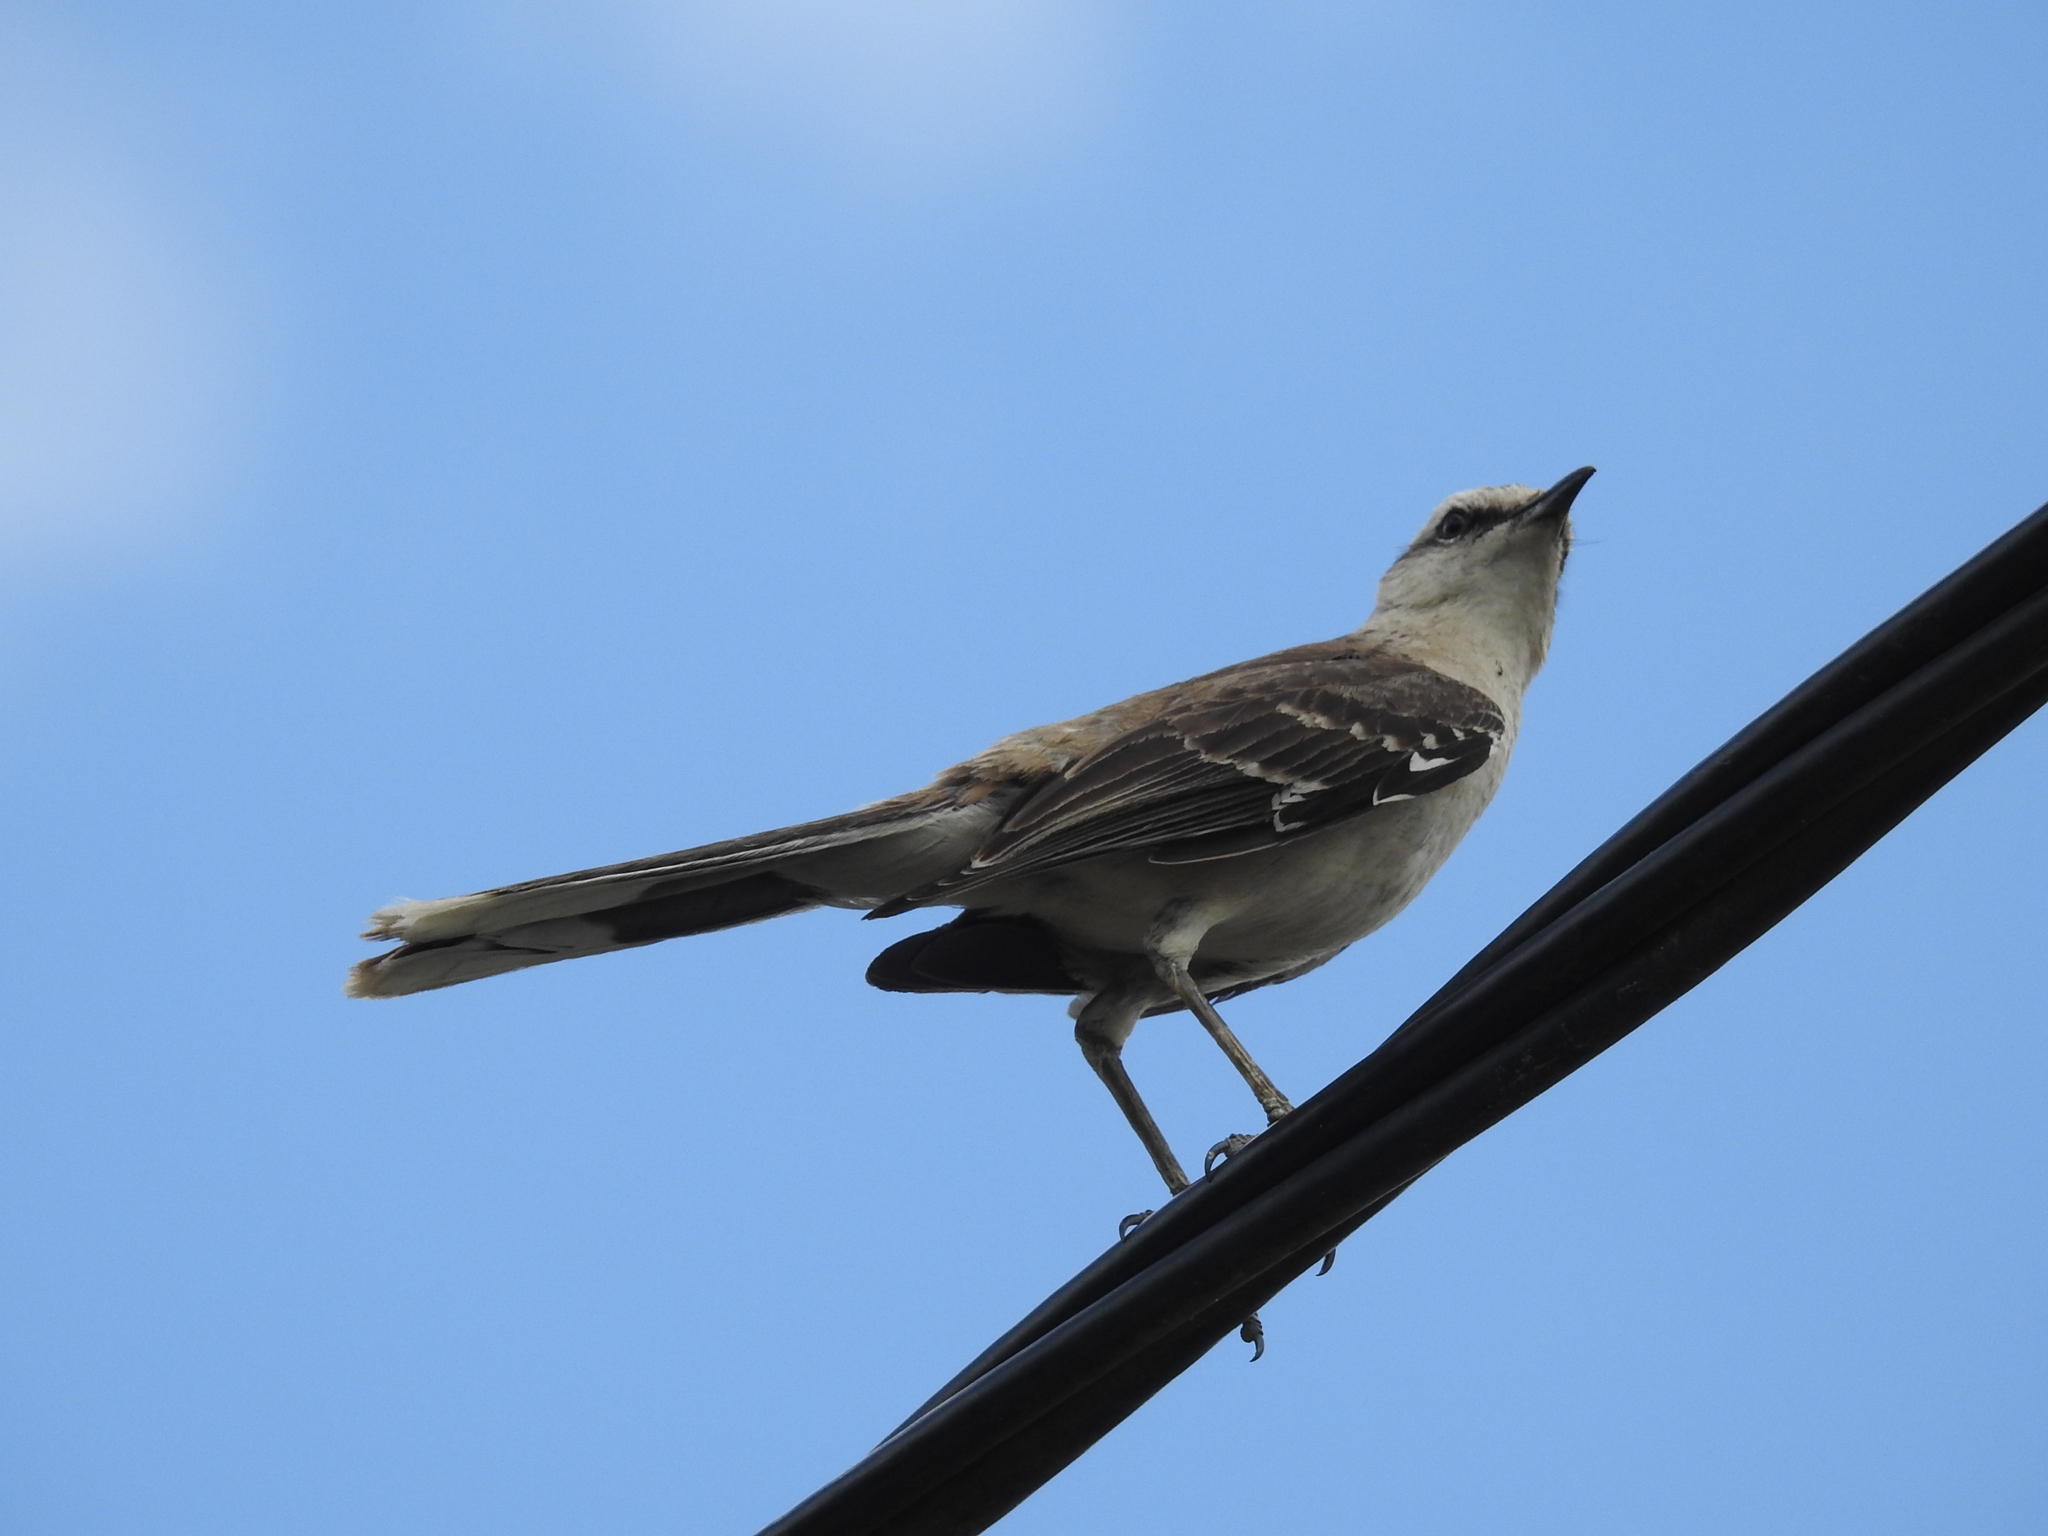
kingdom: Animalia
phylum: Chordata
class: Aves
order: Passeriformes
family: Mimidae
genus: Mimus
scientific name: Mimus saturninus
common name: Chalk-browed mockingbird
